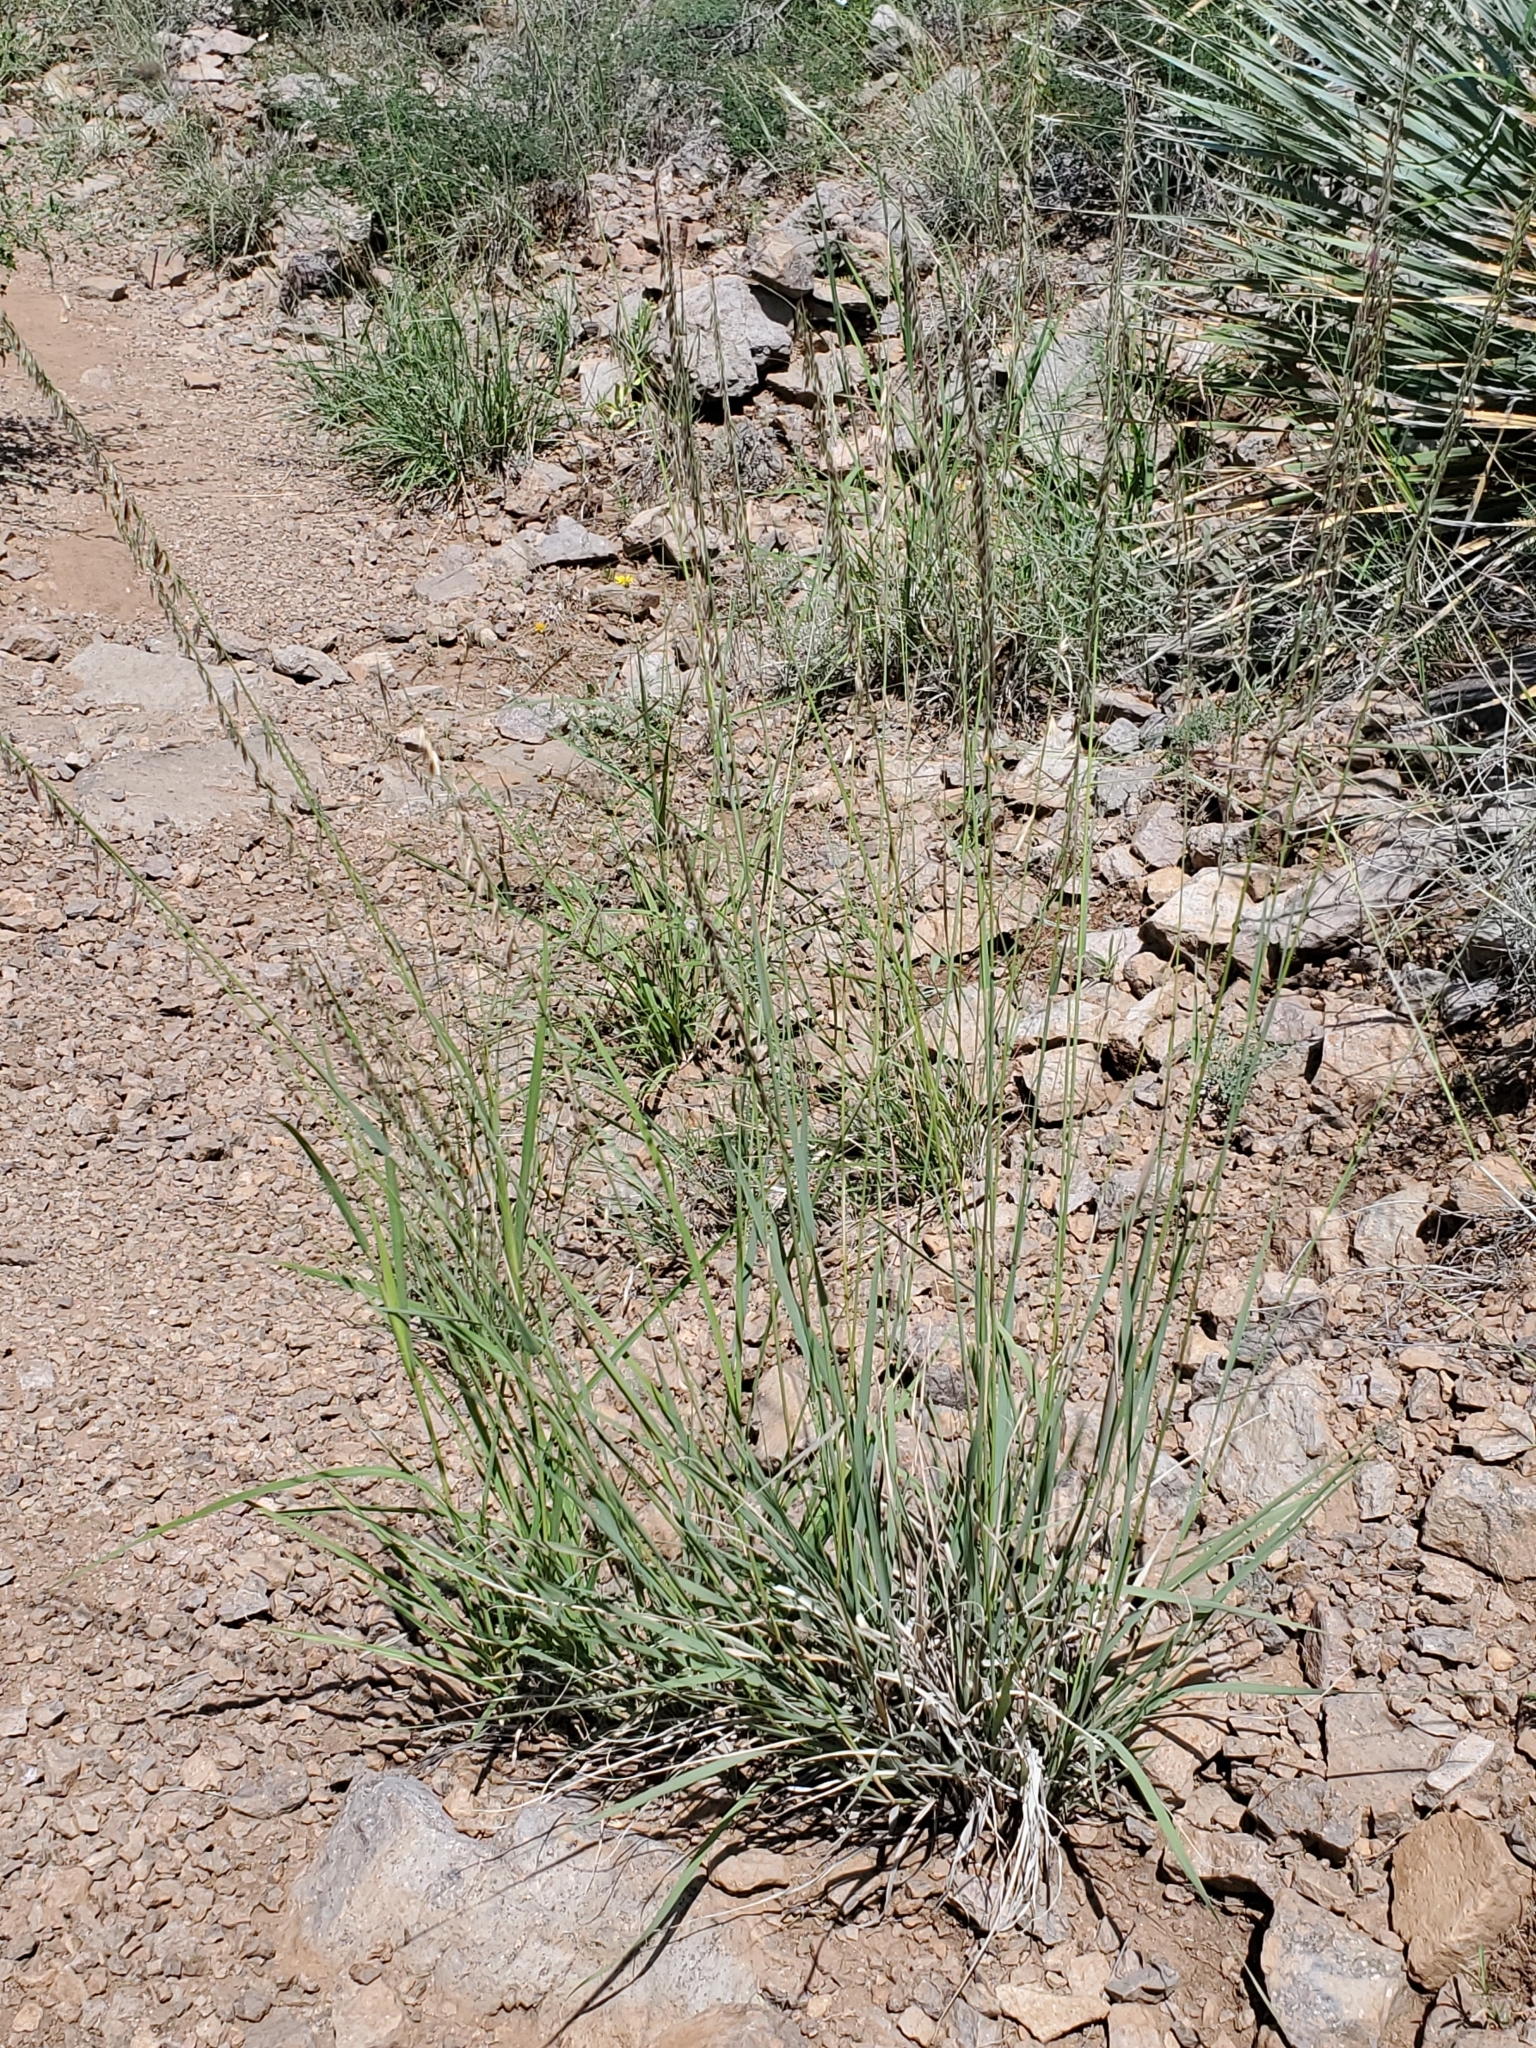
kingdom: Plantae
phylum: Tracheophyta
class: Liliopsida
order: Poales
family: Poaceae
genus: Bouteloua
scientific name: Bouteloua curtipendula
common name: Side-oats grama
